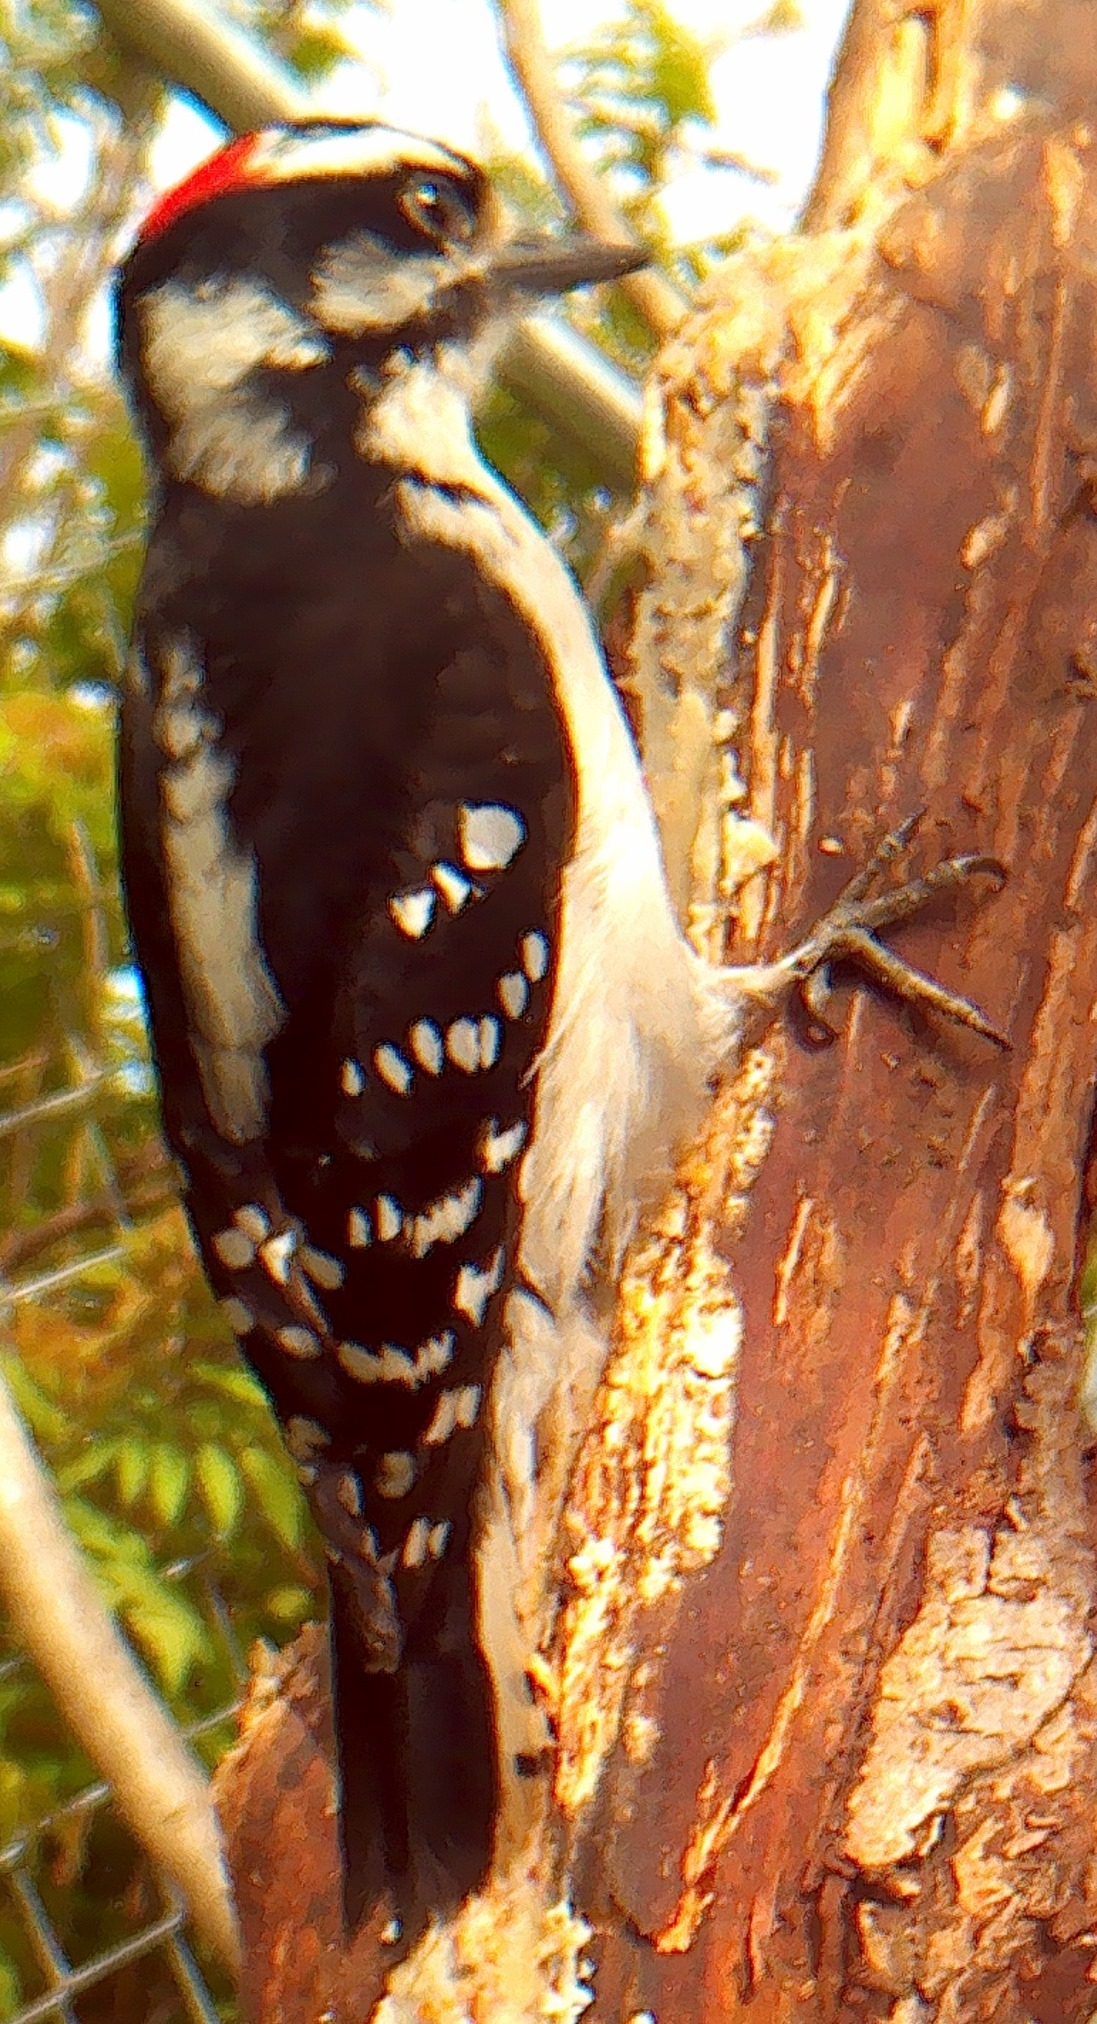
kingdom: Animalia
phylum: Chordata
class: Aves
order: Piciformes
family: Picidae
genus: Dryobates
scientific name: Dryobates pubescens
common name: Downy woodpecker
